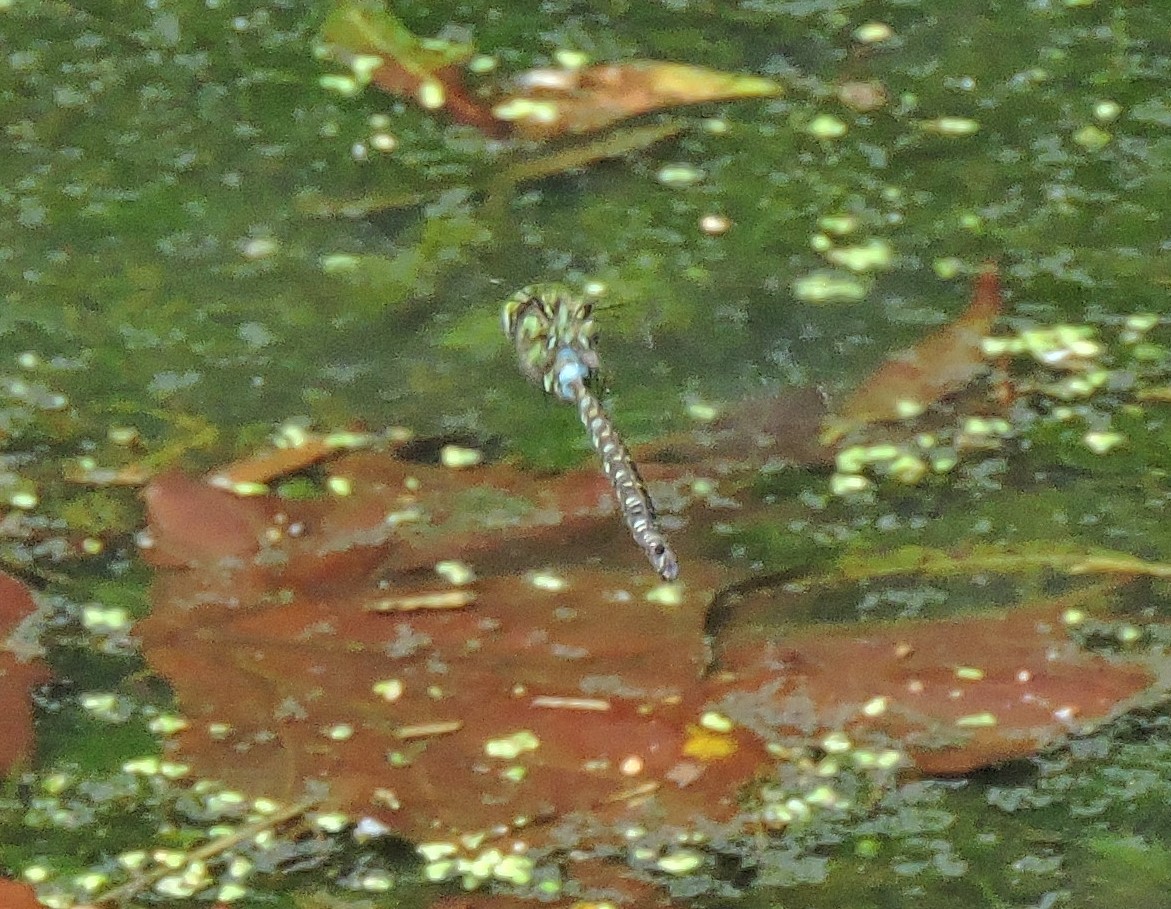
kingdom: Animalia
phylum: Arthropoda
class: Insecta
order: Odonata
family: Aeshnidae
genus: Aeshna
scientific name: Aeshna verticalis
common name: Green-striped darner
